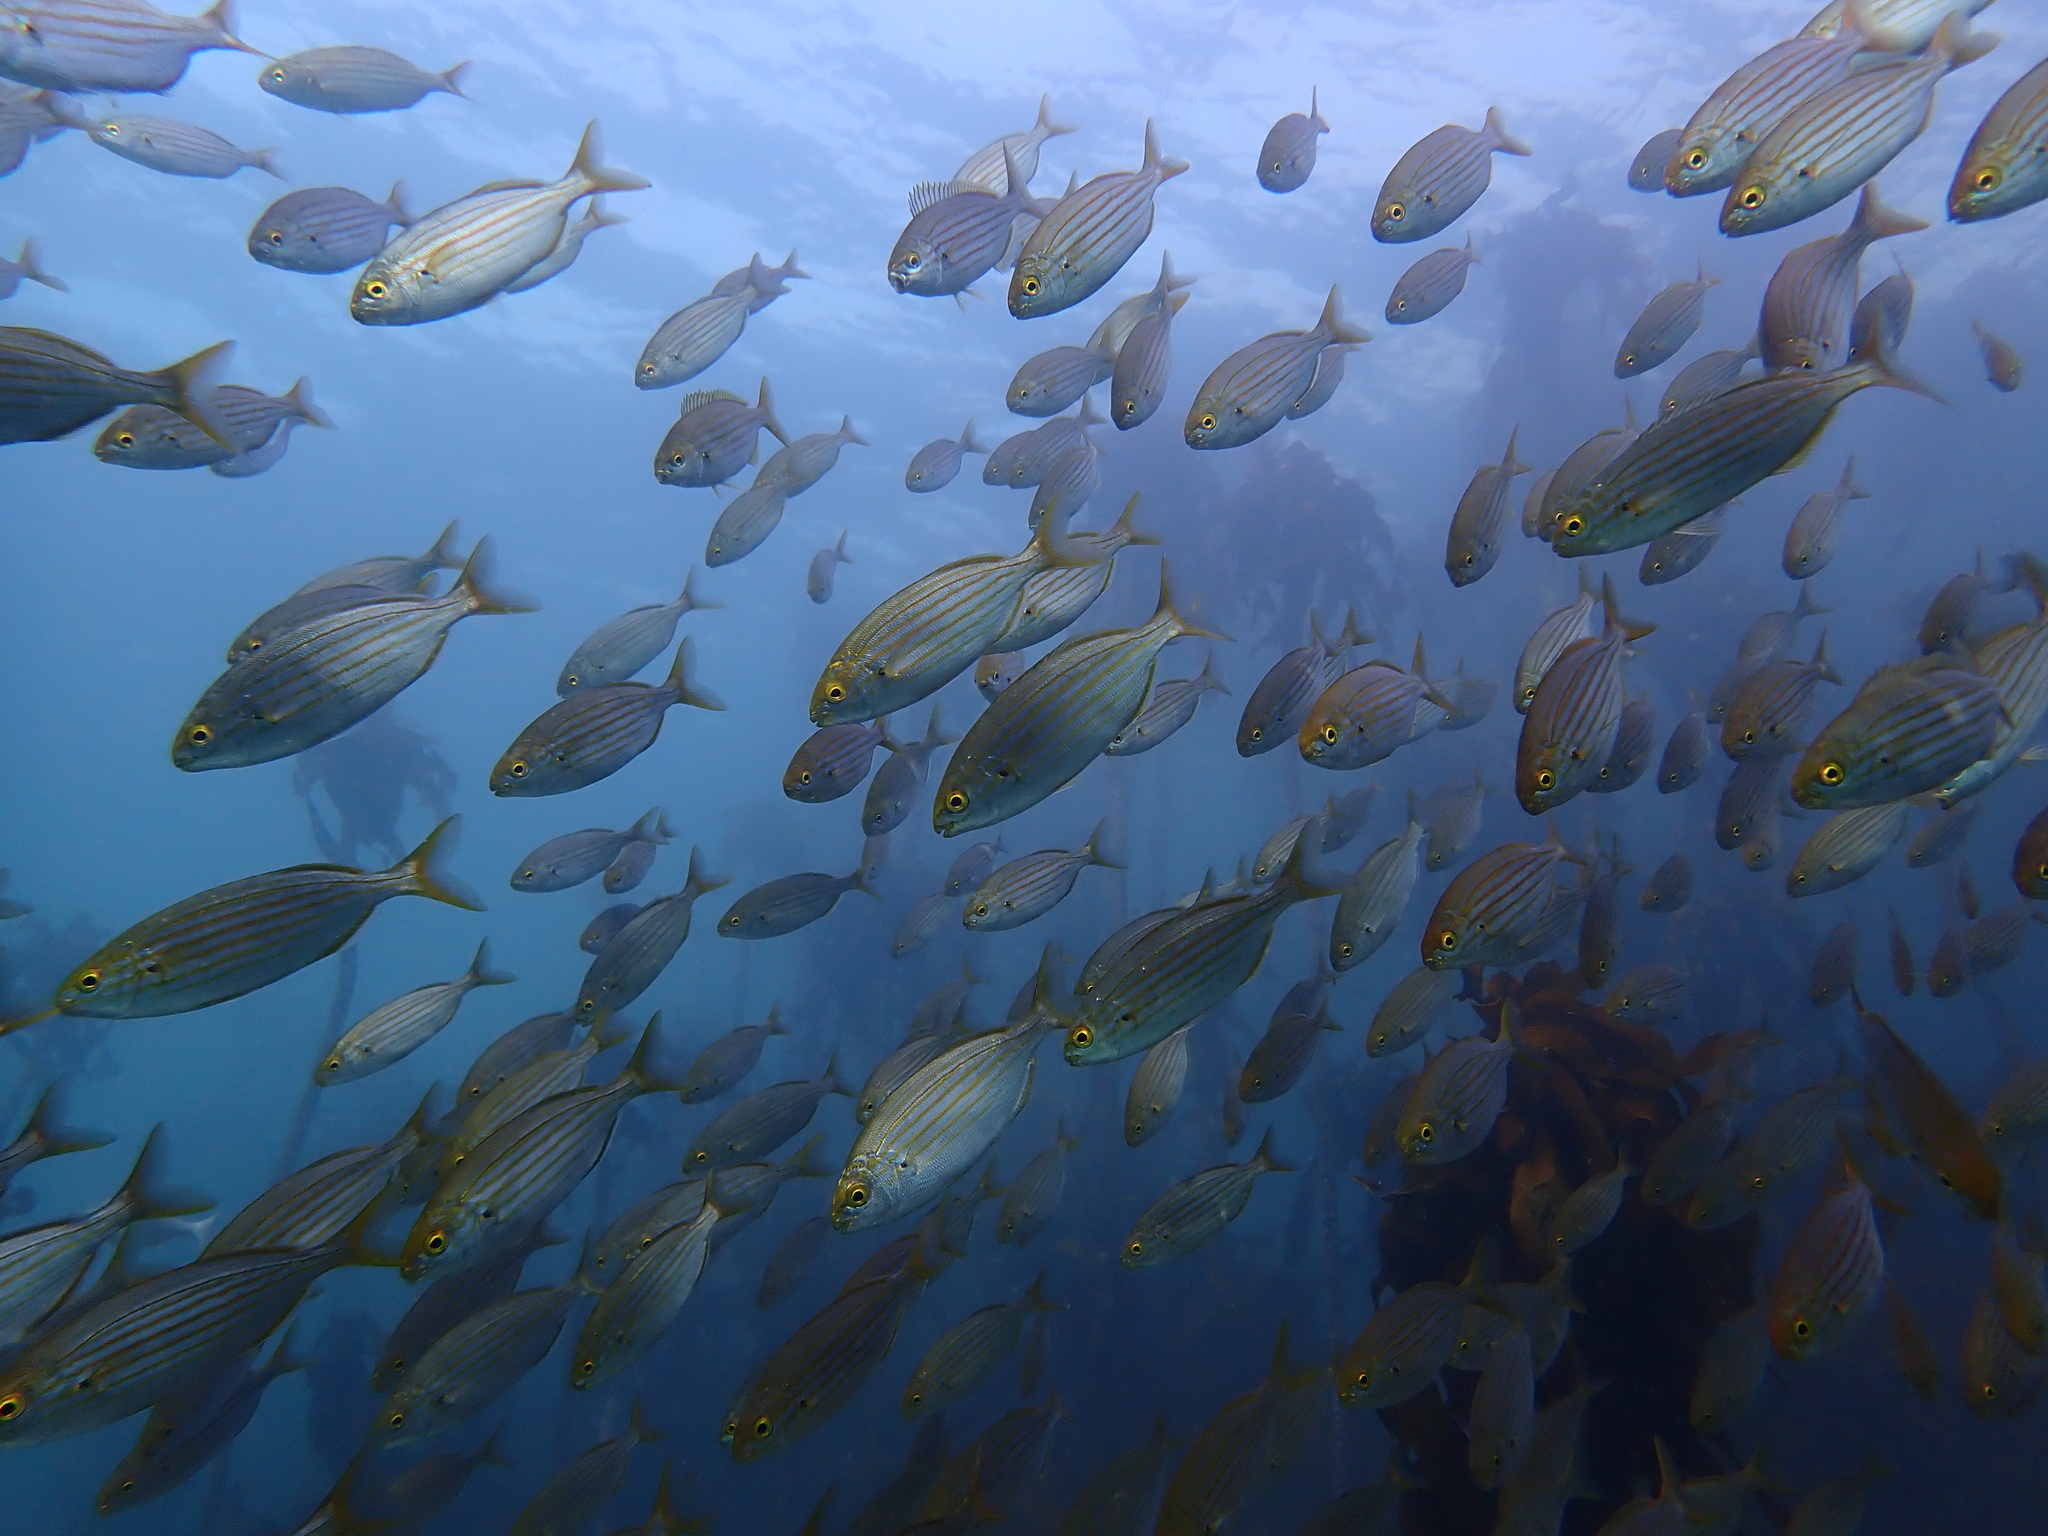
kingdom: Animalia
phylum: Chordata
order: Perciformes
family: Sparidae
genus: Sarpa
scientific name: Sarpa salpa
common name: Salema
